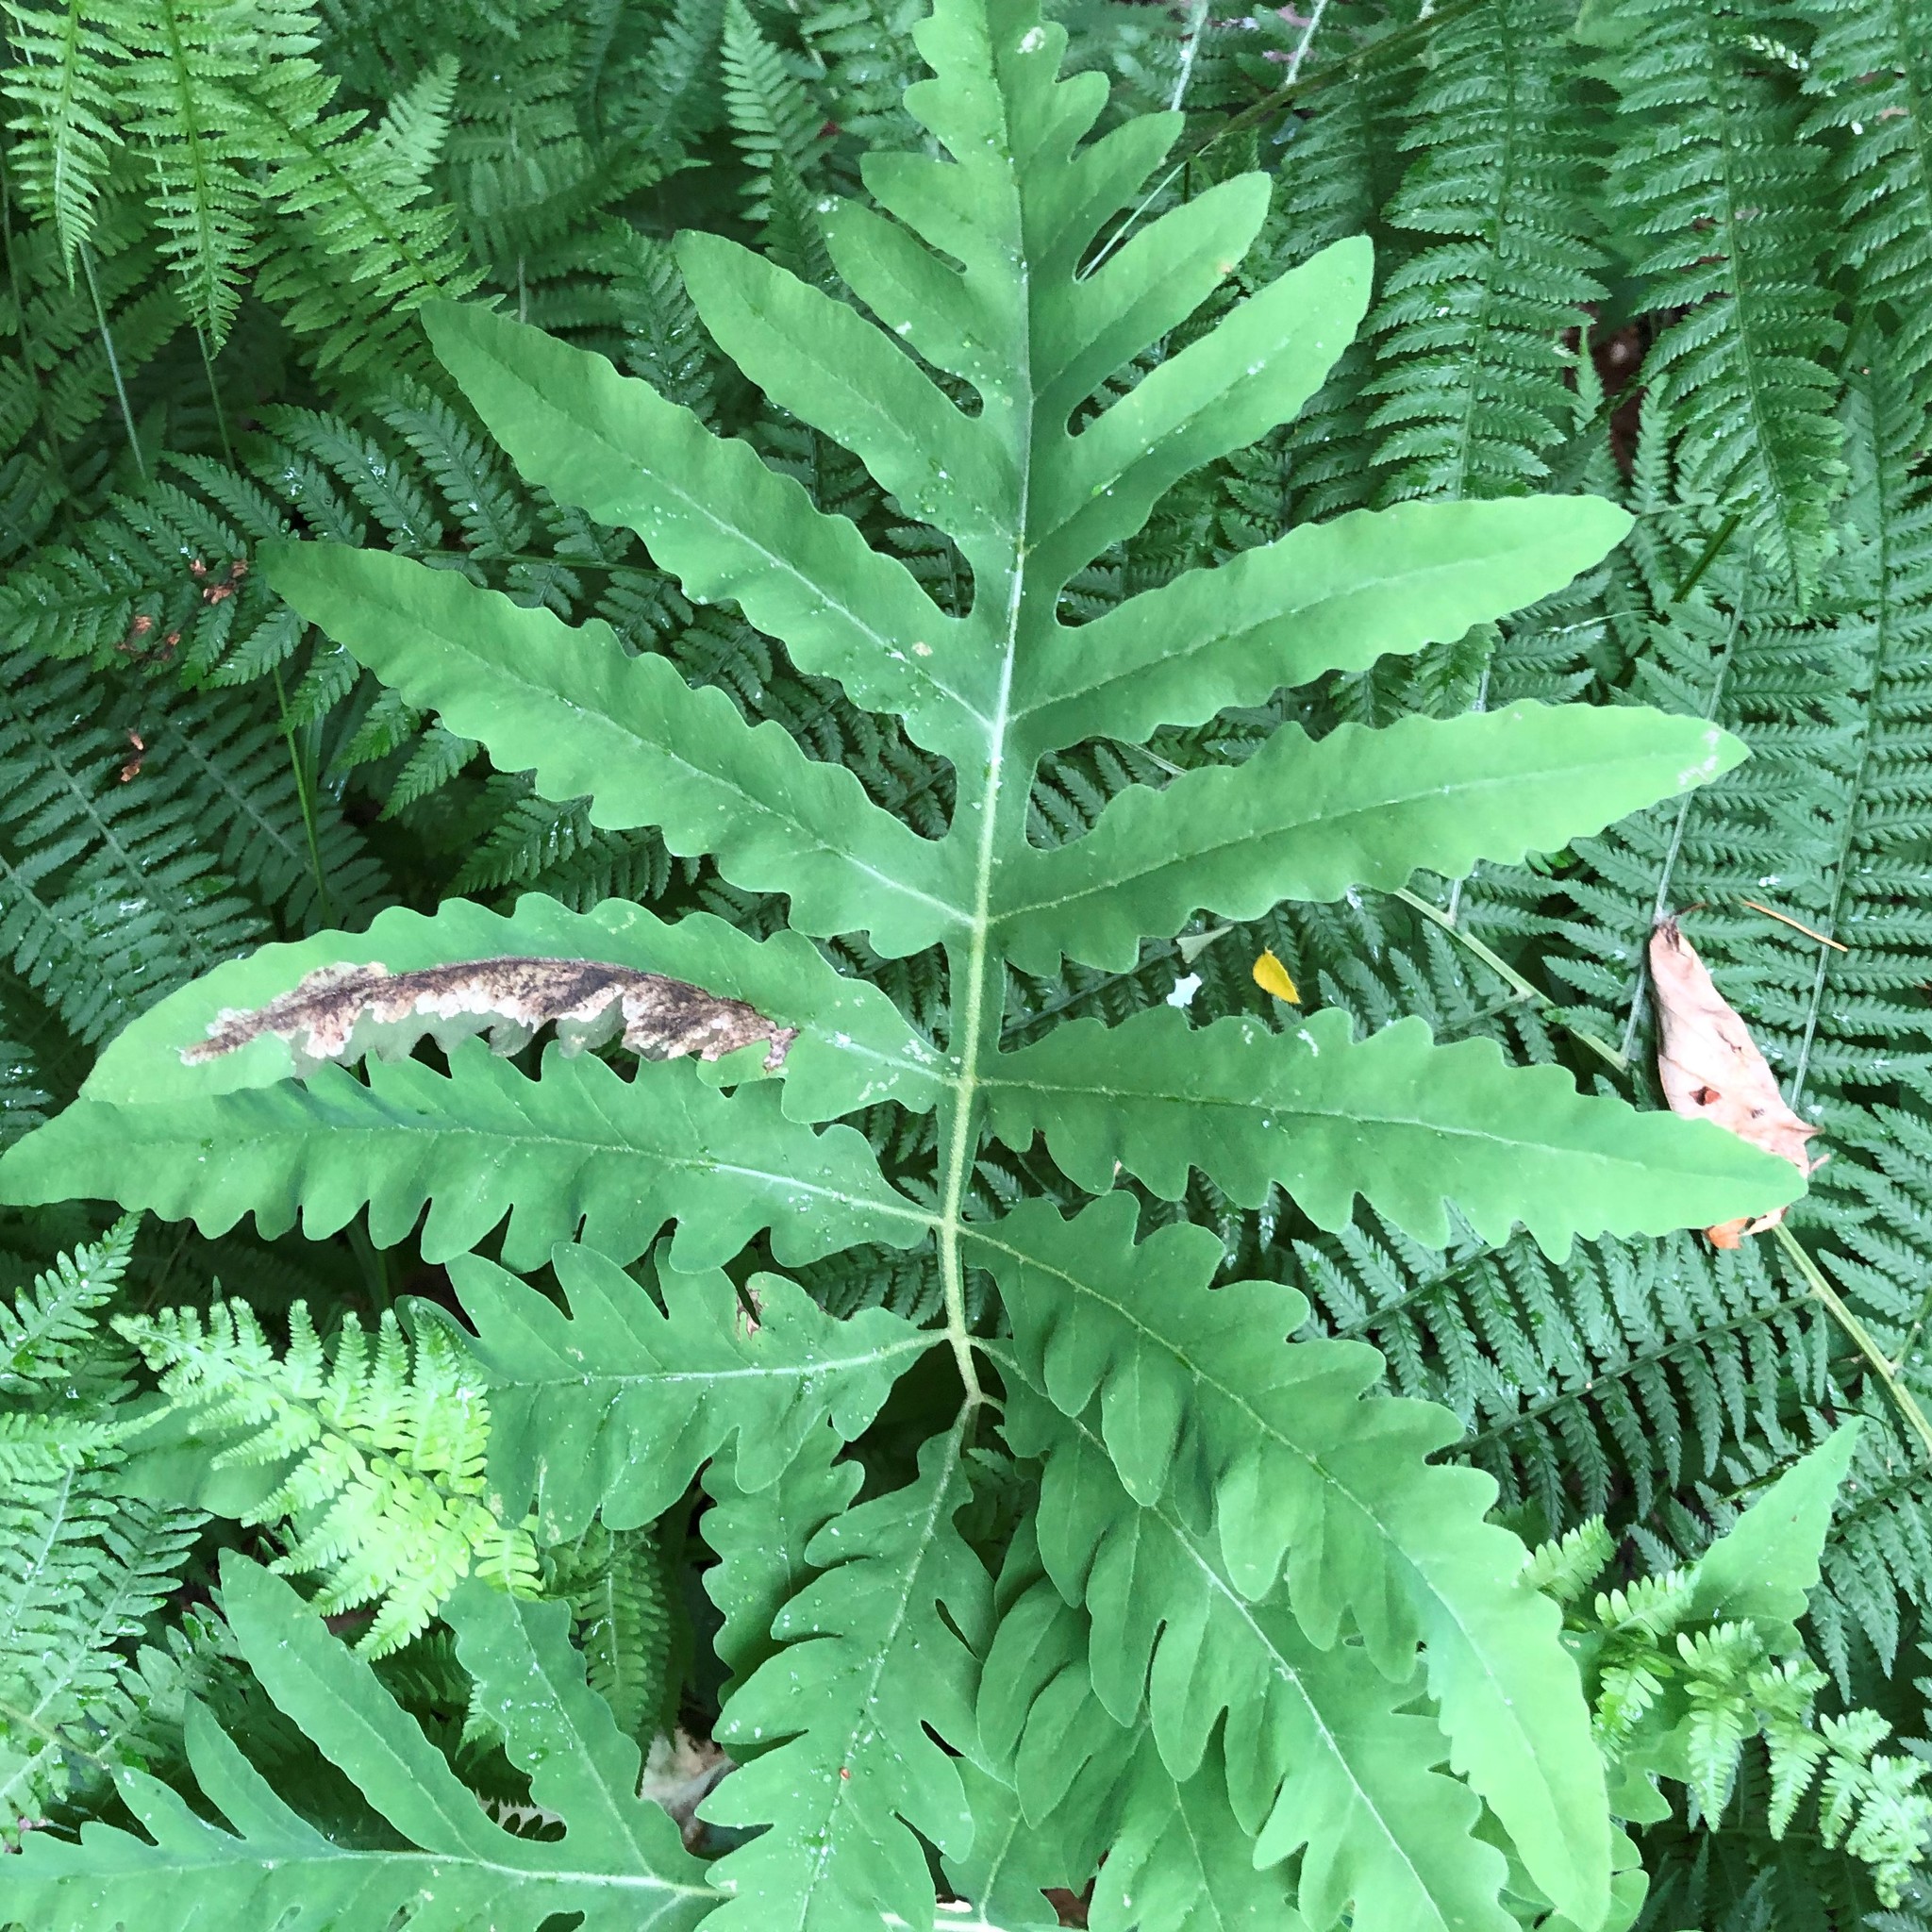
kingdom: Plantae
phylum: Tracheophyta
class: Polypodiopsida
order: Polypodiales
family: Onocleaceae
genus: Onoclea
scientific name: Onoclea sensibilis
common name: Sensitive fern
